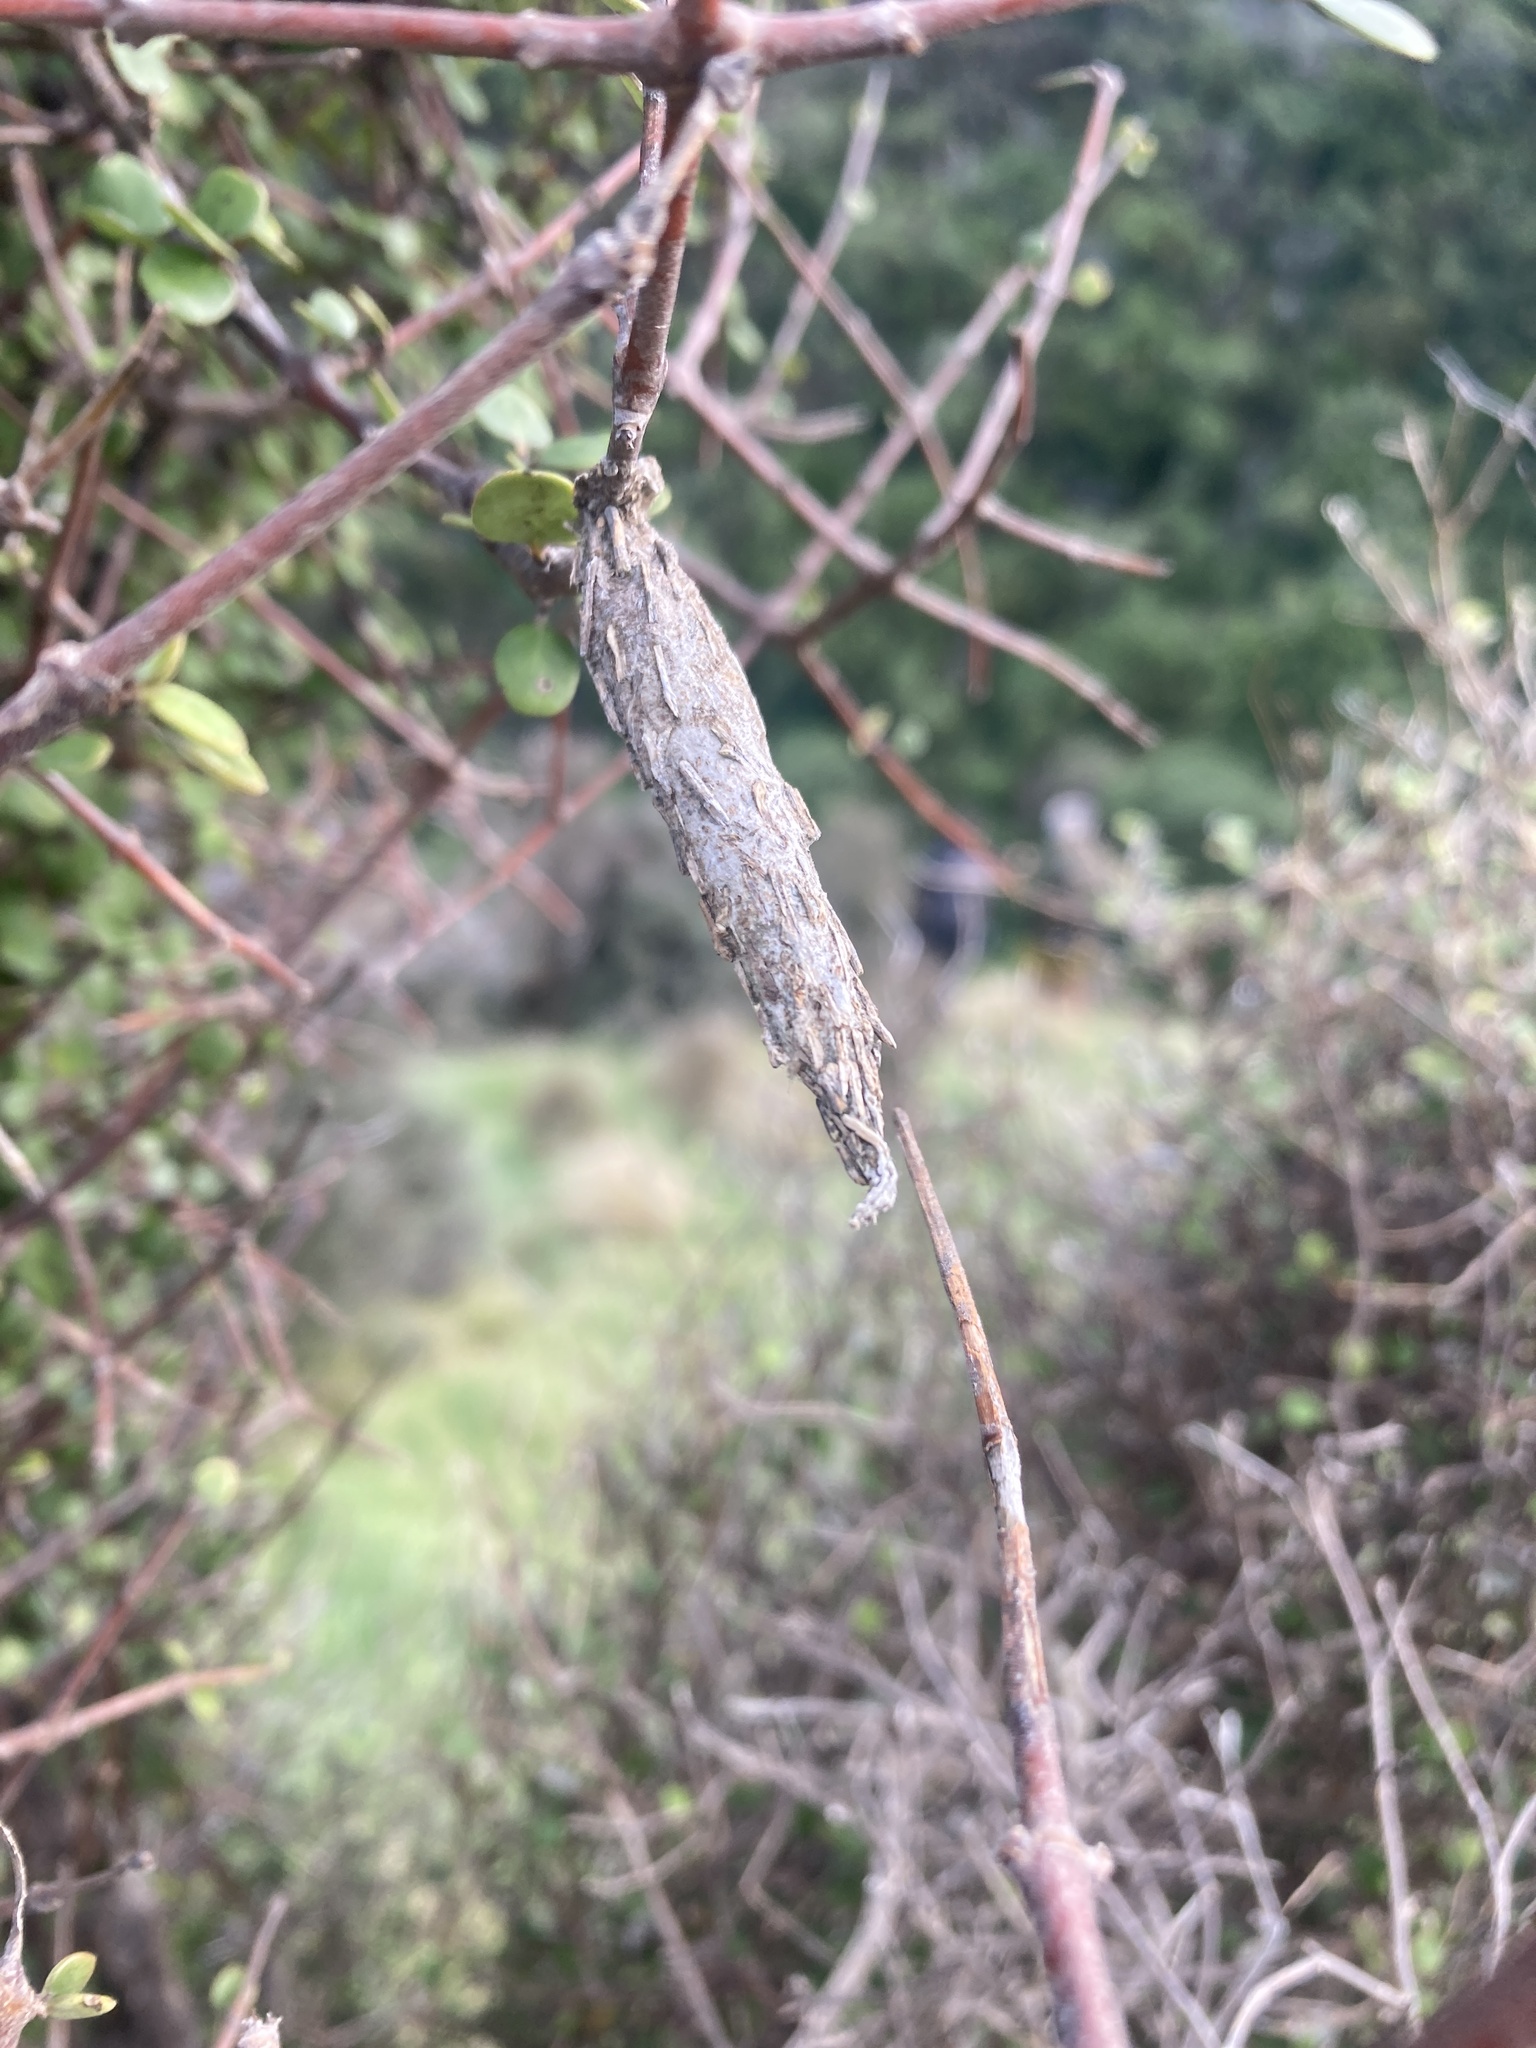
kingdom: Animalia
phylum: Arthropoda
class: Insecta
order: Lepidoptera
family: Psychidae
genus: Liothula
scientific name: Liothula omnivora
